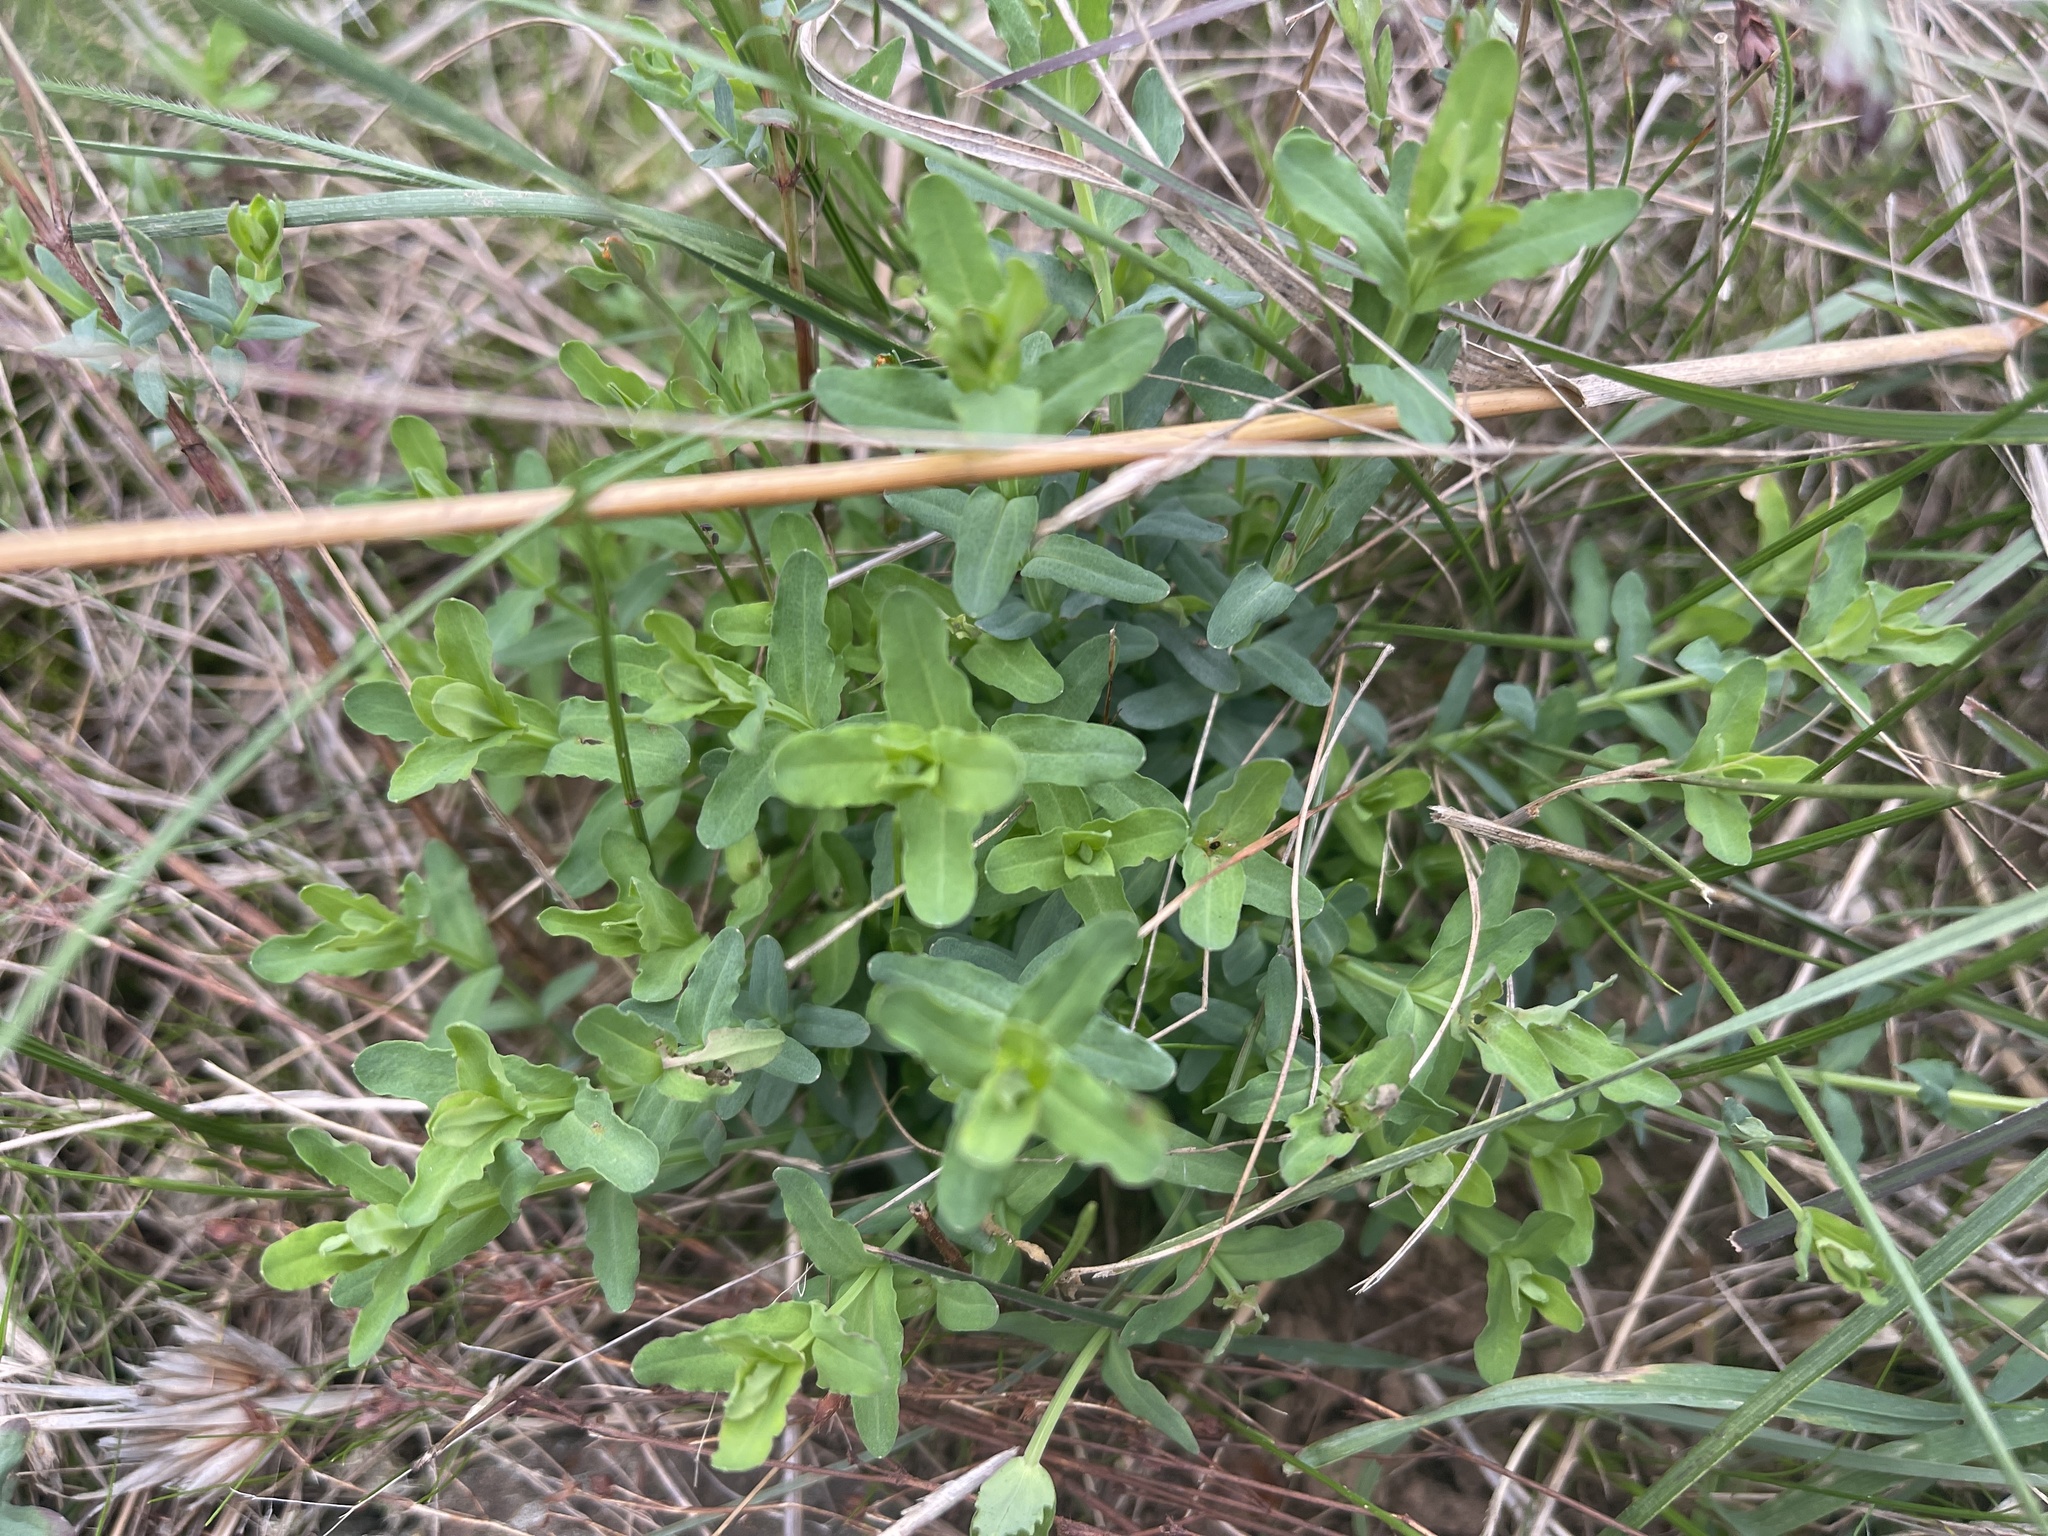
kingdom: Plantae
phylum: Tracheophyta
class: Magnoliopsida
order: Malpighiales
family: Hypericaceae
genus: Hypericum
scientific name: Hypericum gramineum
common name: Grassy st. johnswort
